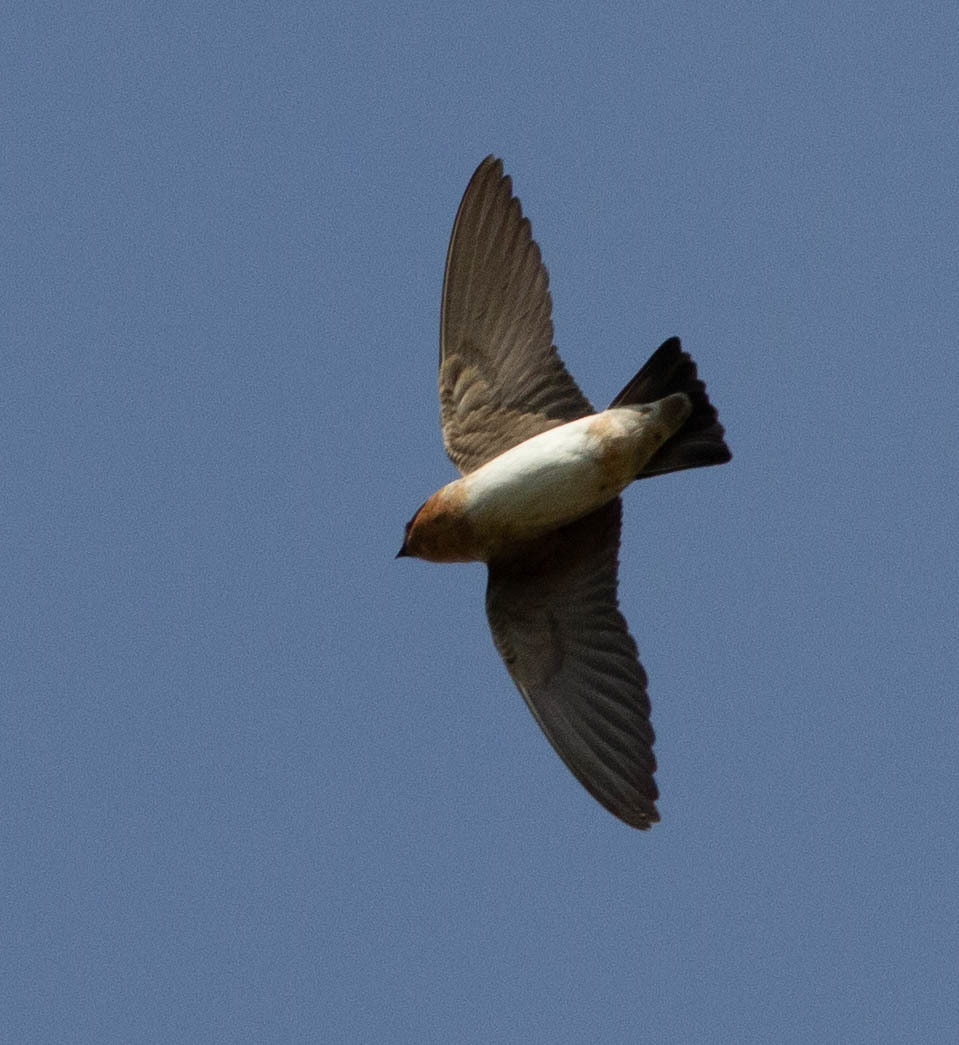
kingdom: Animalia
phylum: Chordata
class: Aves
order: Passeriformes
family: Hirundinidae
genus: Petrochelidon
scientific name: Petrochelidon fulva
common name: Cave swallow
